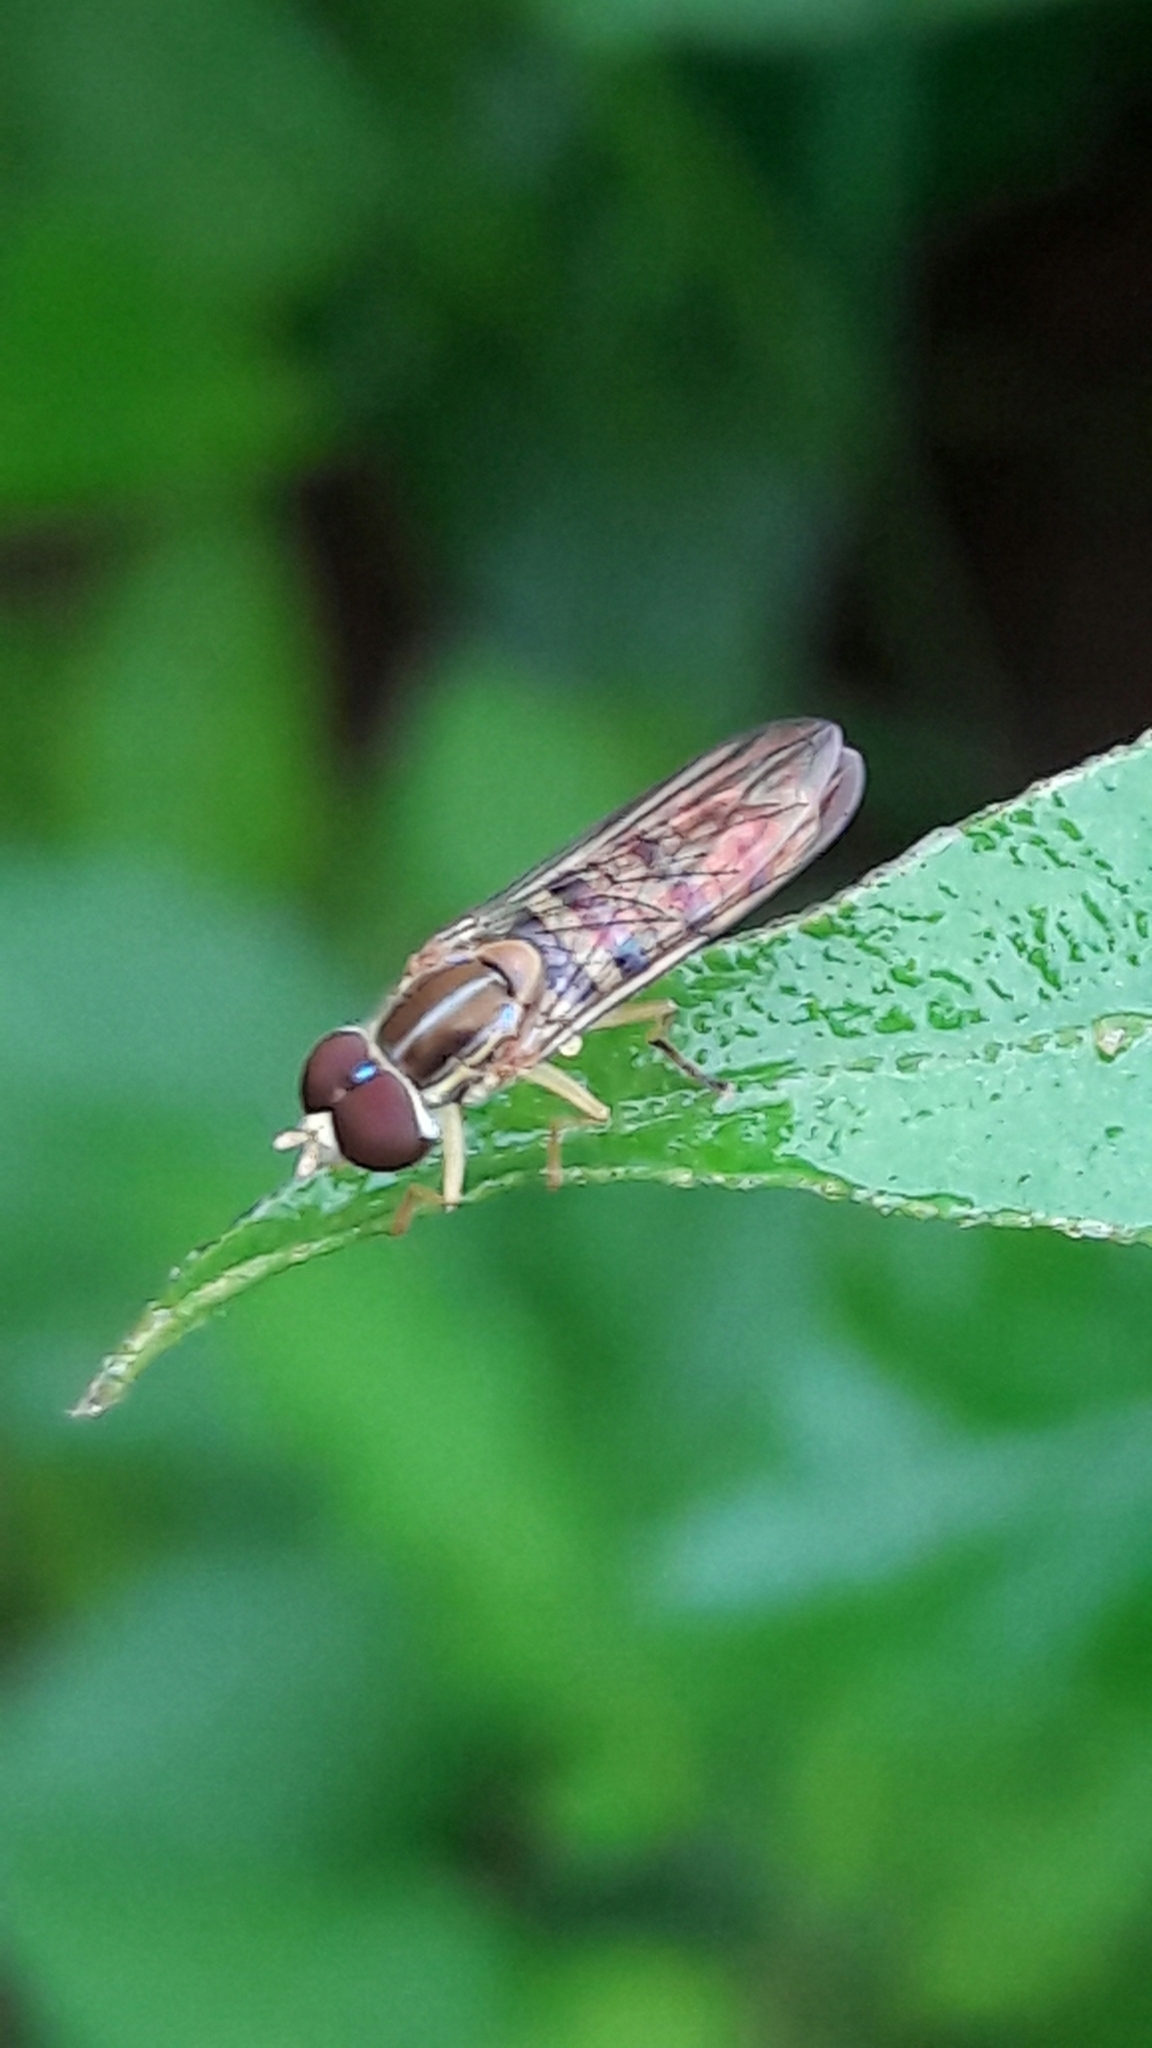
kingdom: Animalia
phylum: Arthropoda
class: Insecta
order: Diptera
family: Syrphidae
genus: Toxomerus
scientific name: Toxomerus politus
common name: Maize calligrapher
